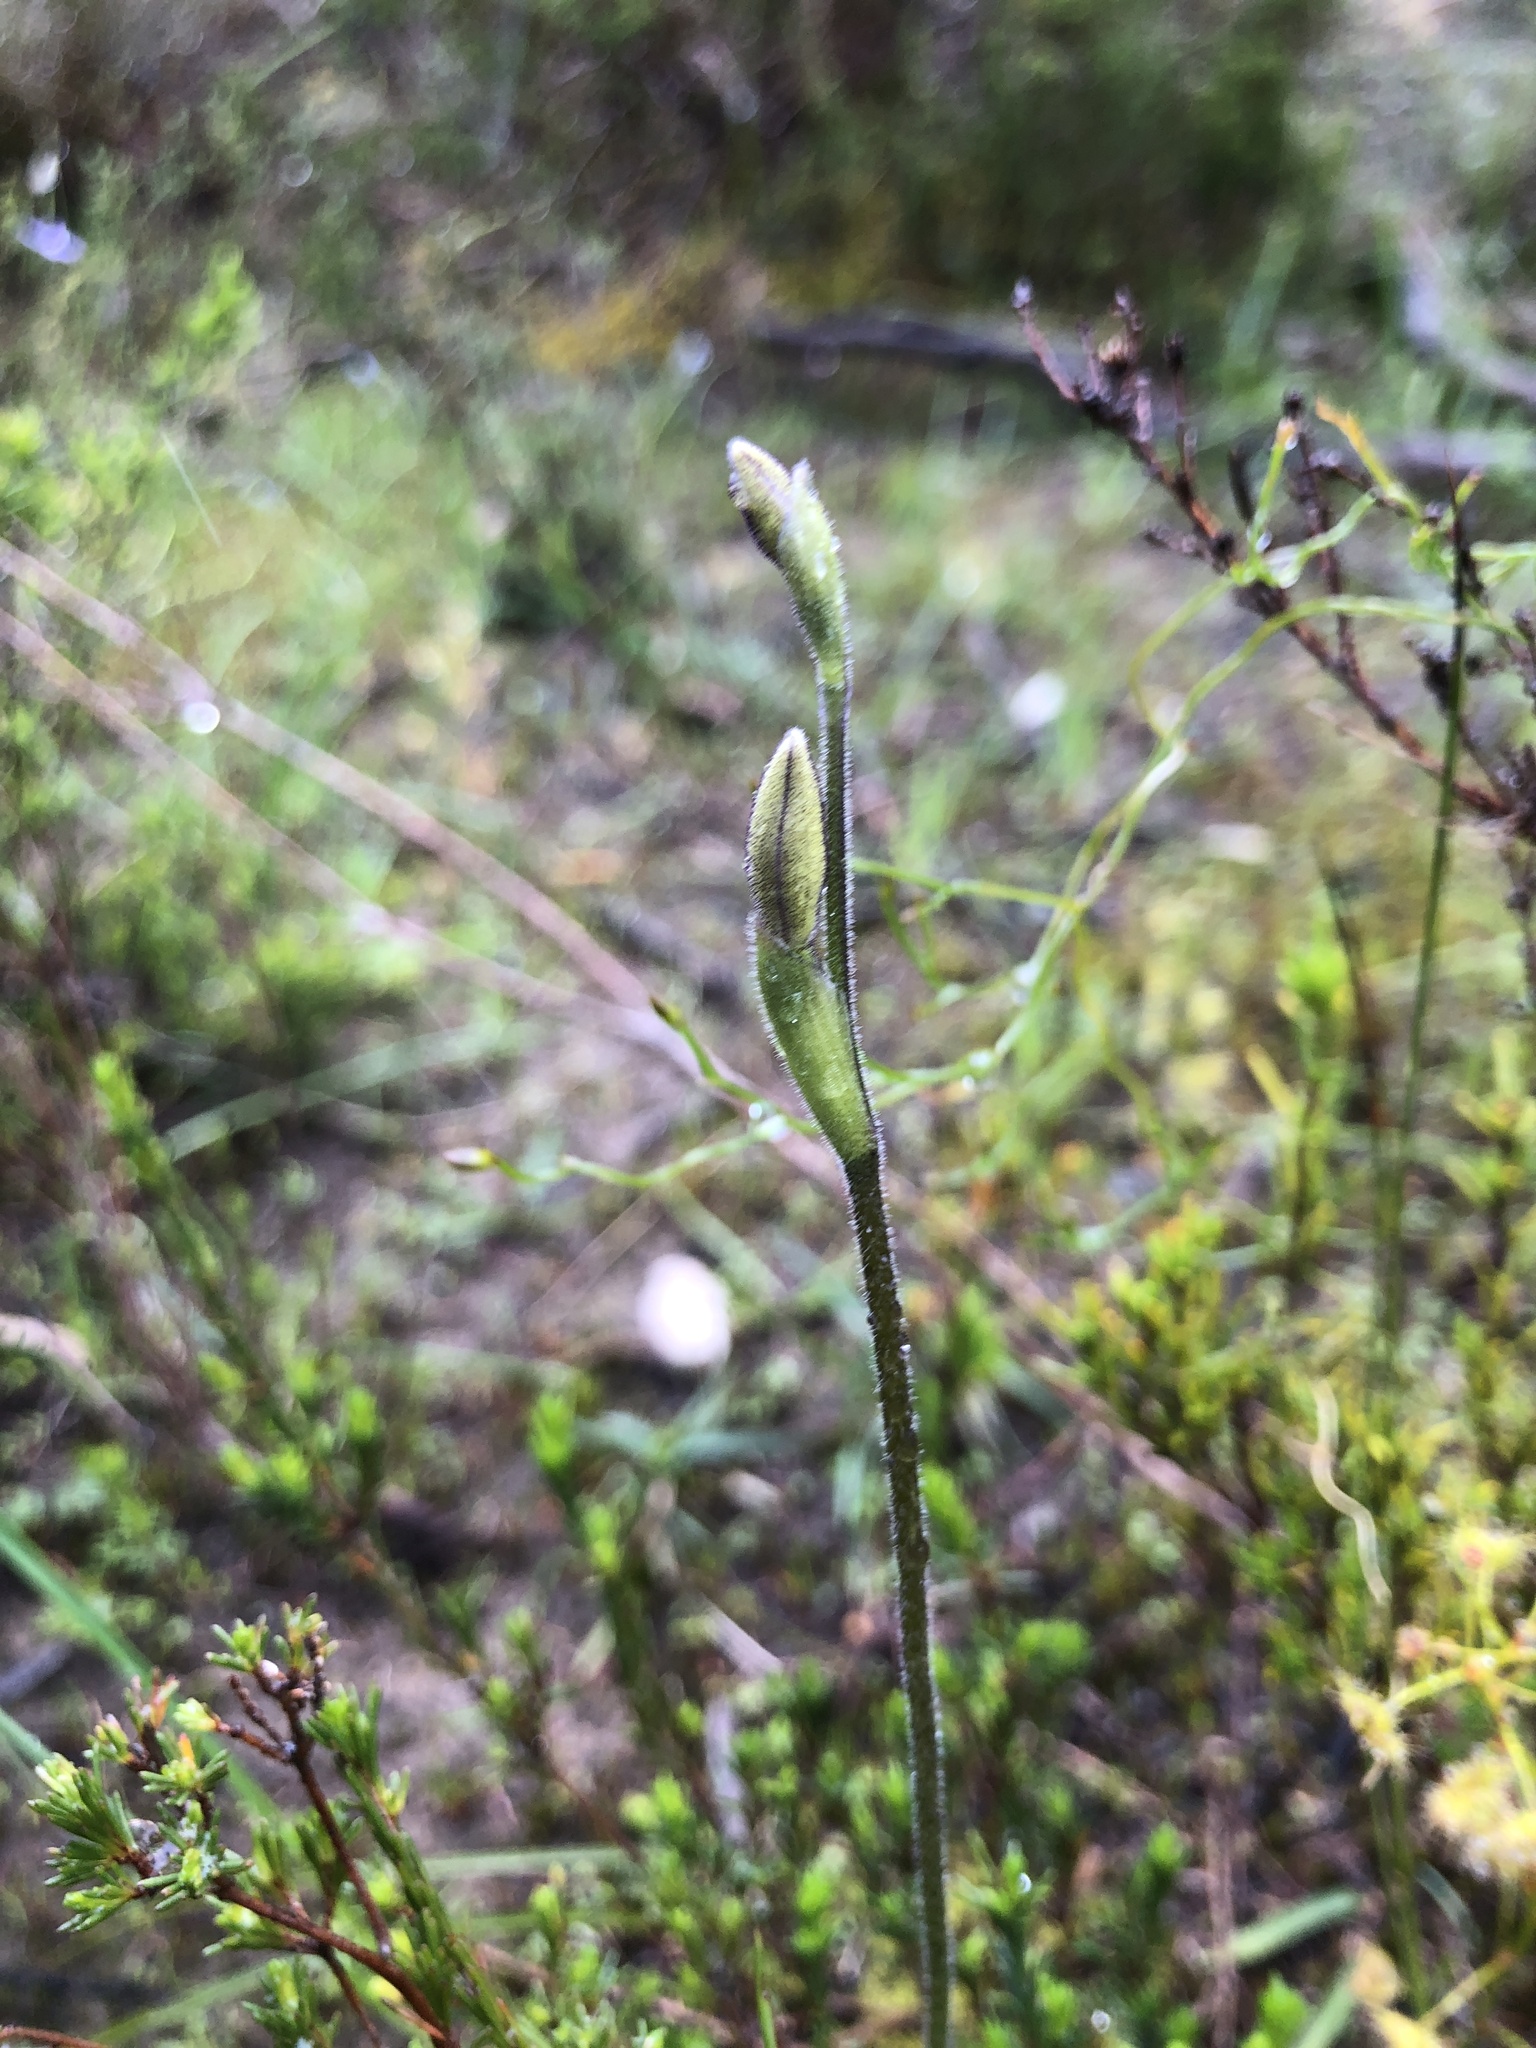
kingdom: Plantae
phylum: Tracheophyta
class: Liliopsida
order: Asparagales
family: Orchidaceae
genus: Caladenia
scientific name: Caladenia major
